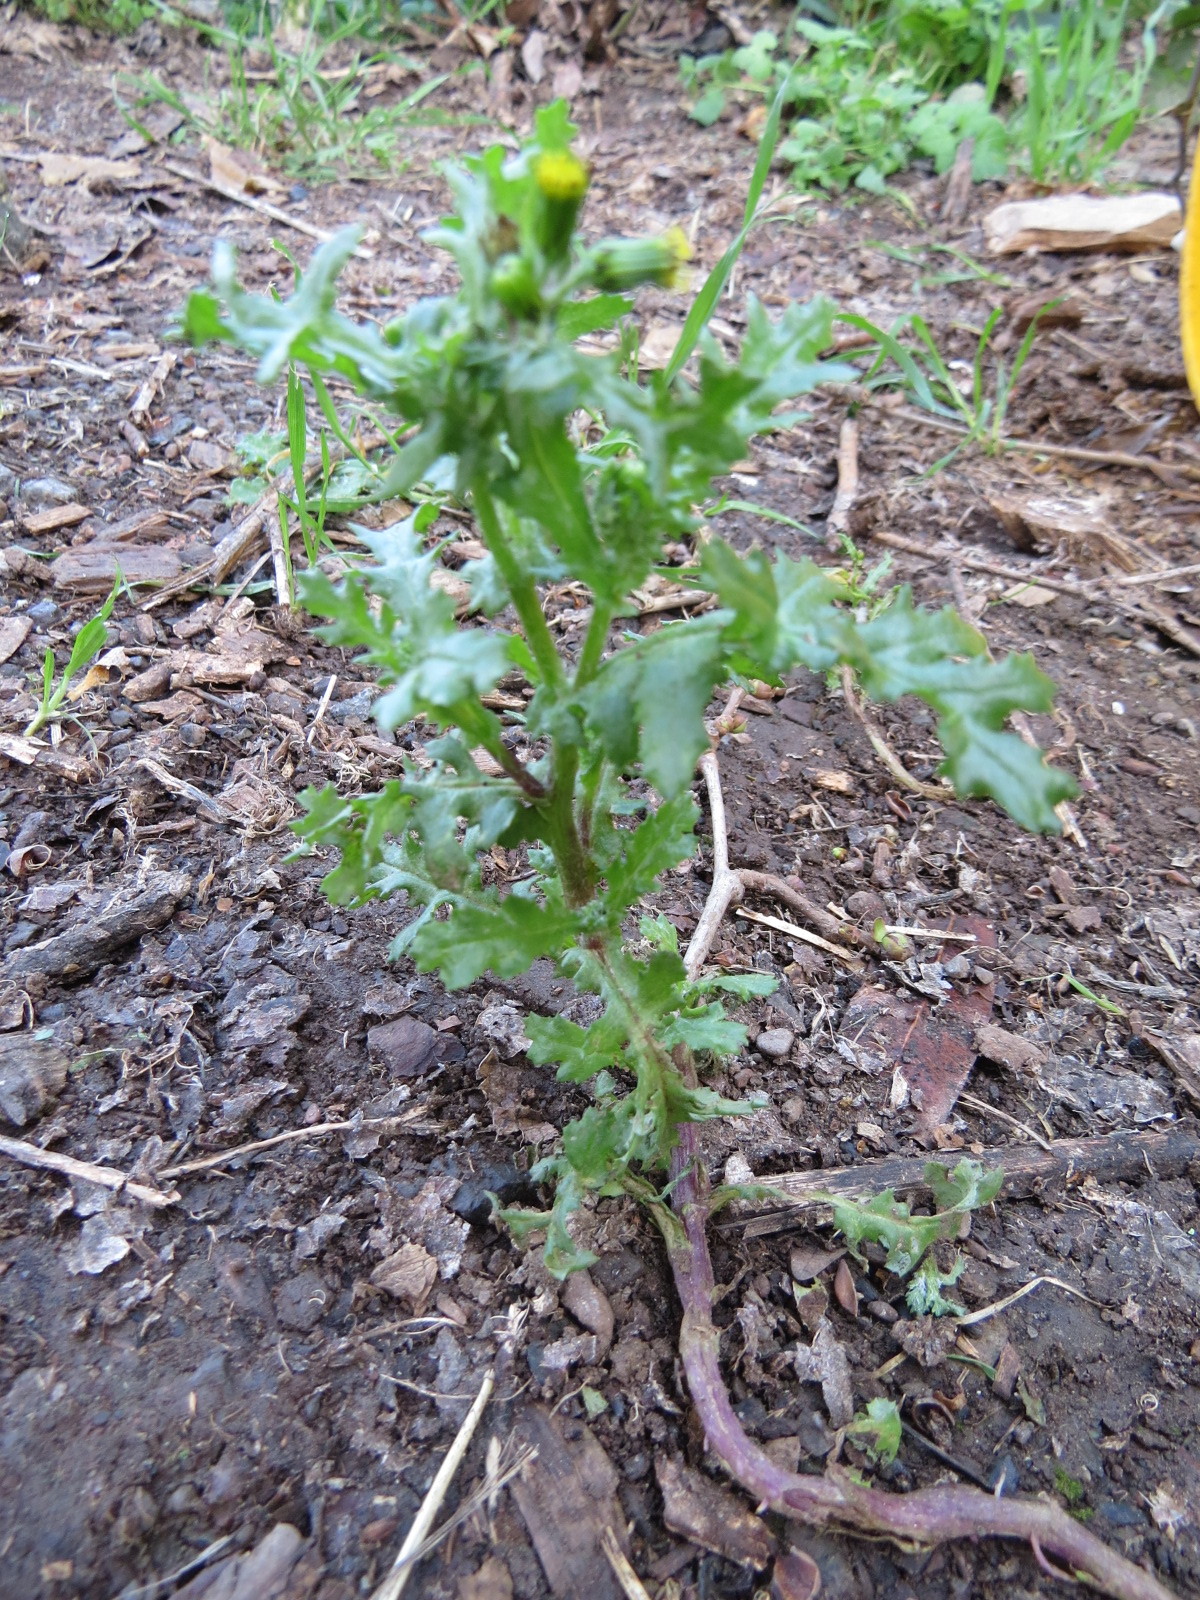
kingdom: Plantae
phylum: Tracheophyta
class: Magnoliopsida
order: Asterales
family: Asteraceae
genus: Senecio
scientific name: Senecio vulgaris
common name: Old-man-in-the-spring
